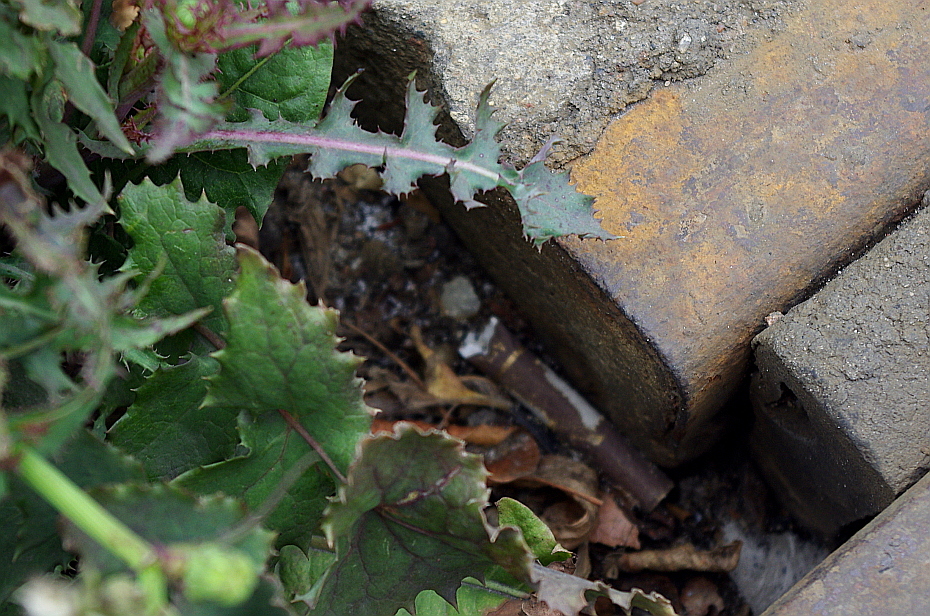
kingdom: Plantae
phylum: Tracheophyta
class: Magnoliopsida
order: Asterales
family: Asteraceae
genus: Sonchus
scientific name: Sonchus oleraceus
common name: Common sowthistle
